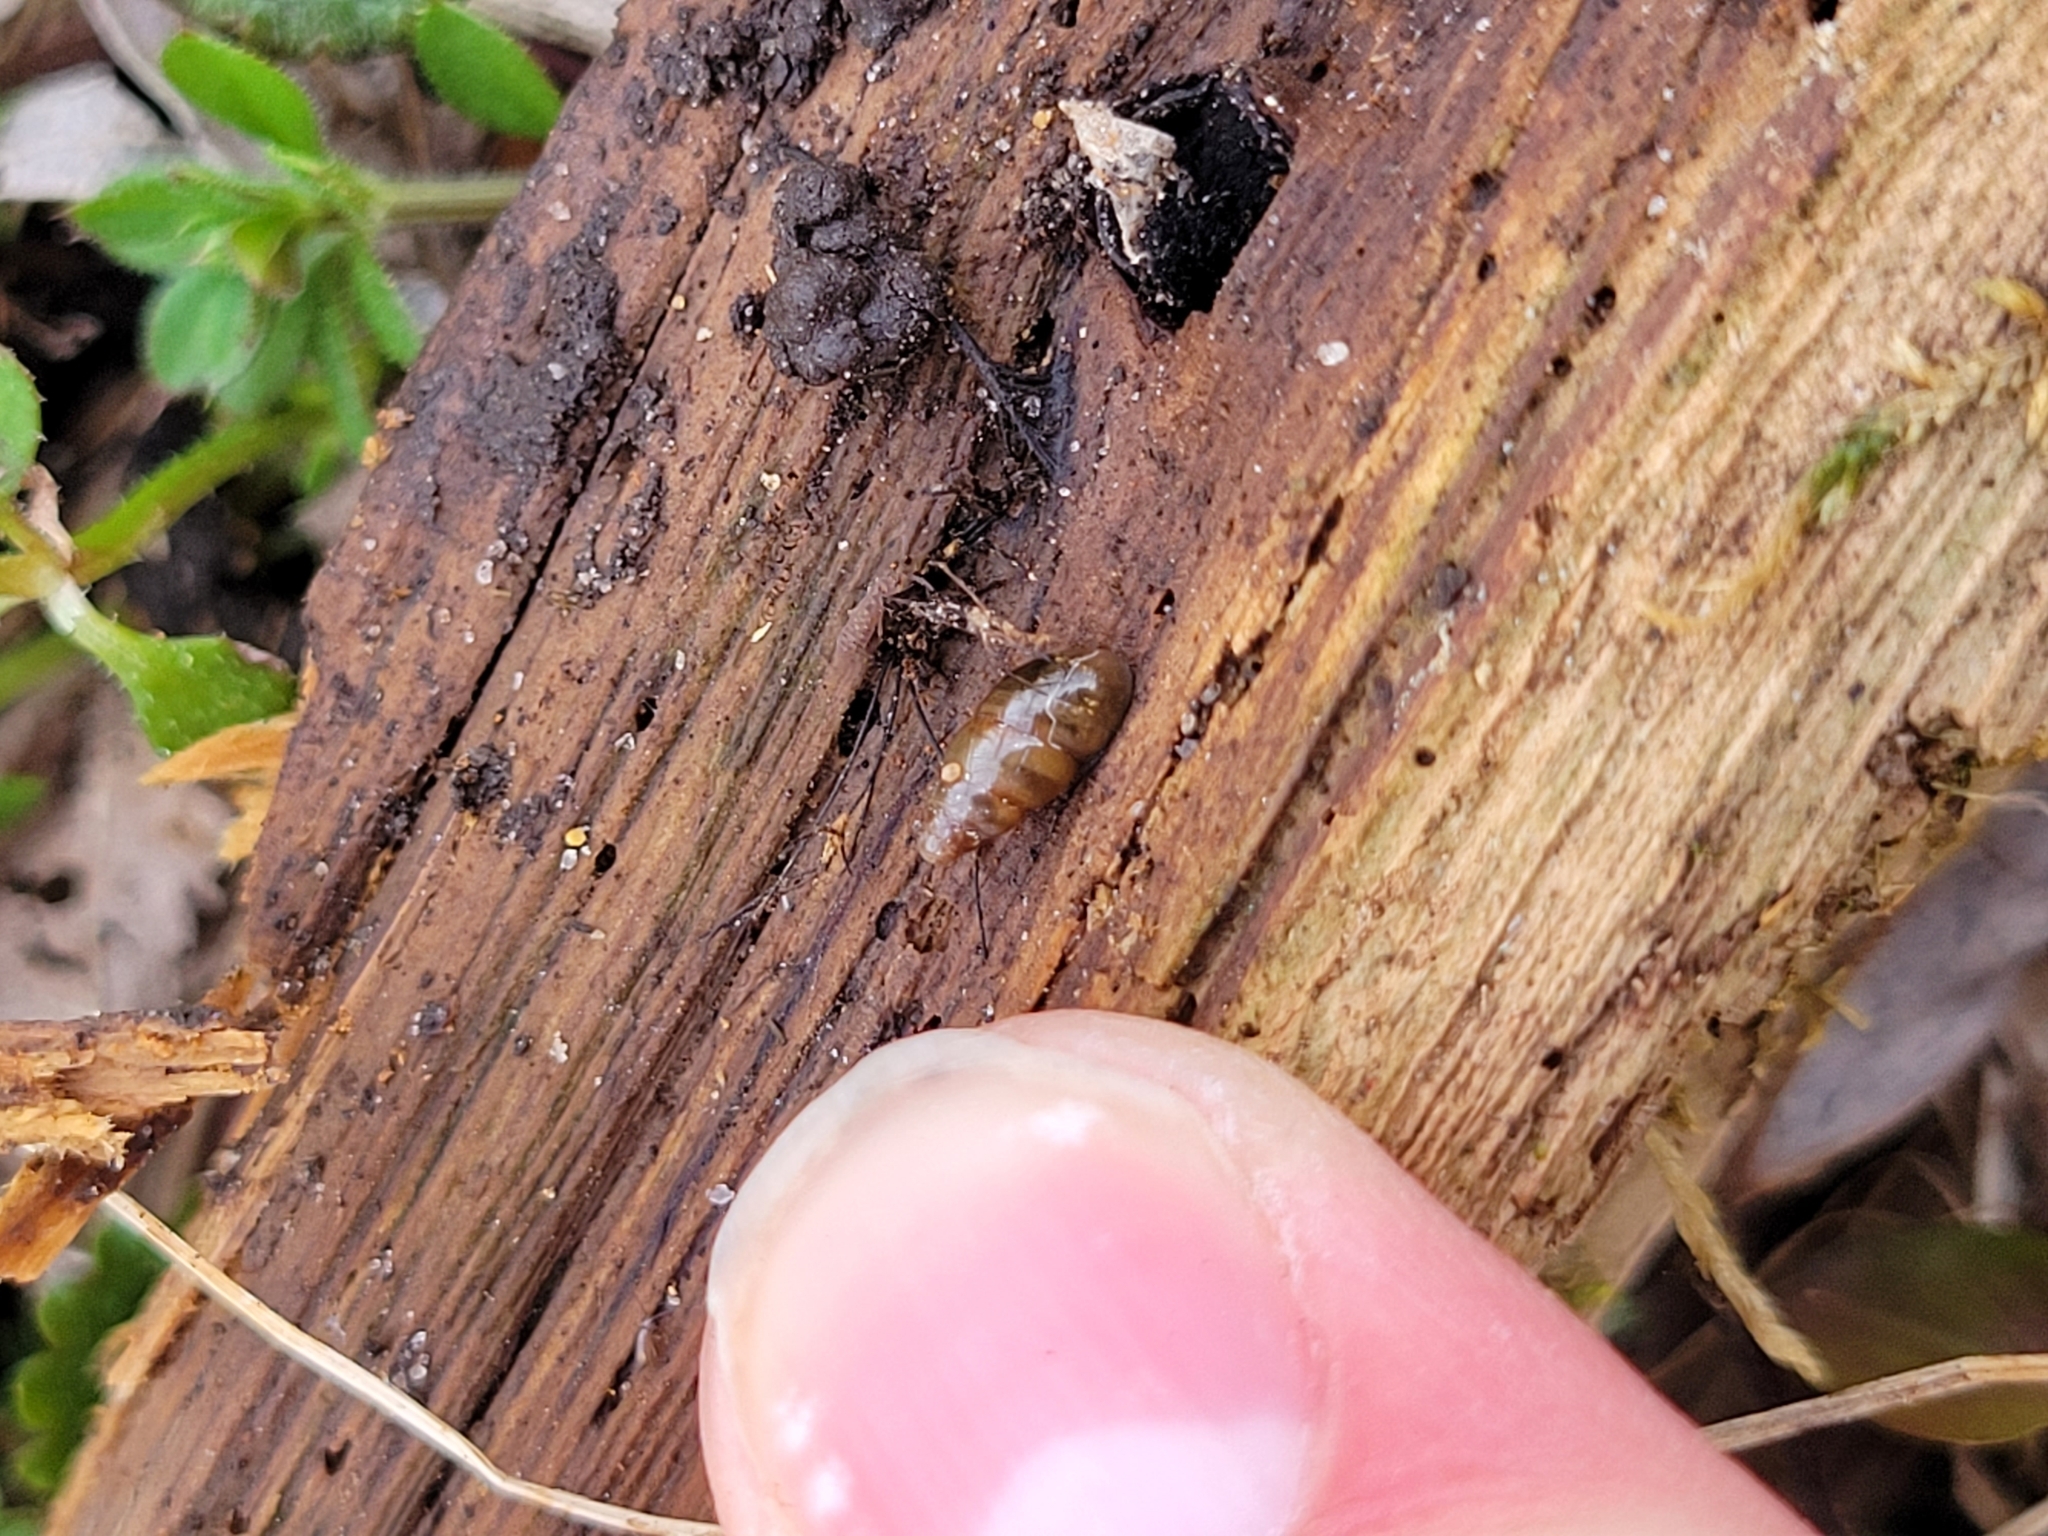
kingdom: Animalia
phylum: Mollusca
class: Gastropoda
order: Stylommatophora
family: Cochlicopidae
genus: Cochlicopa
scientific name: Cochlicopa lubrica
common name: Glossy pillar snail
